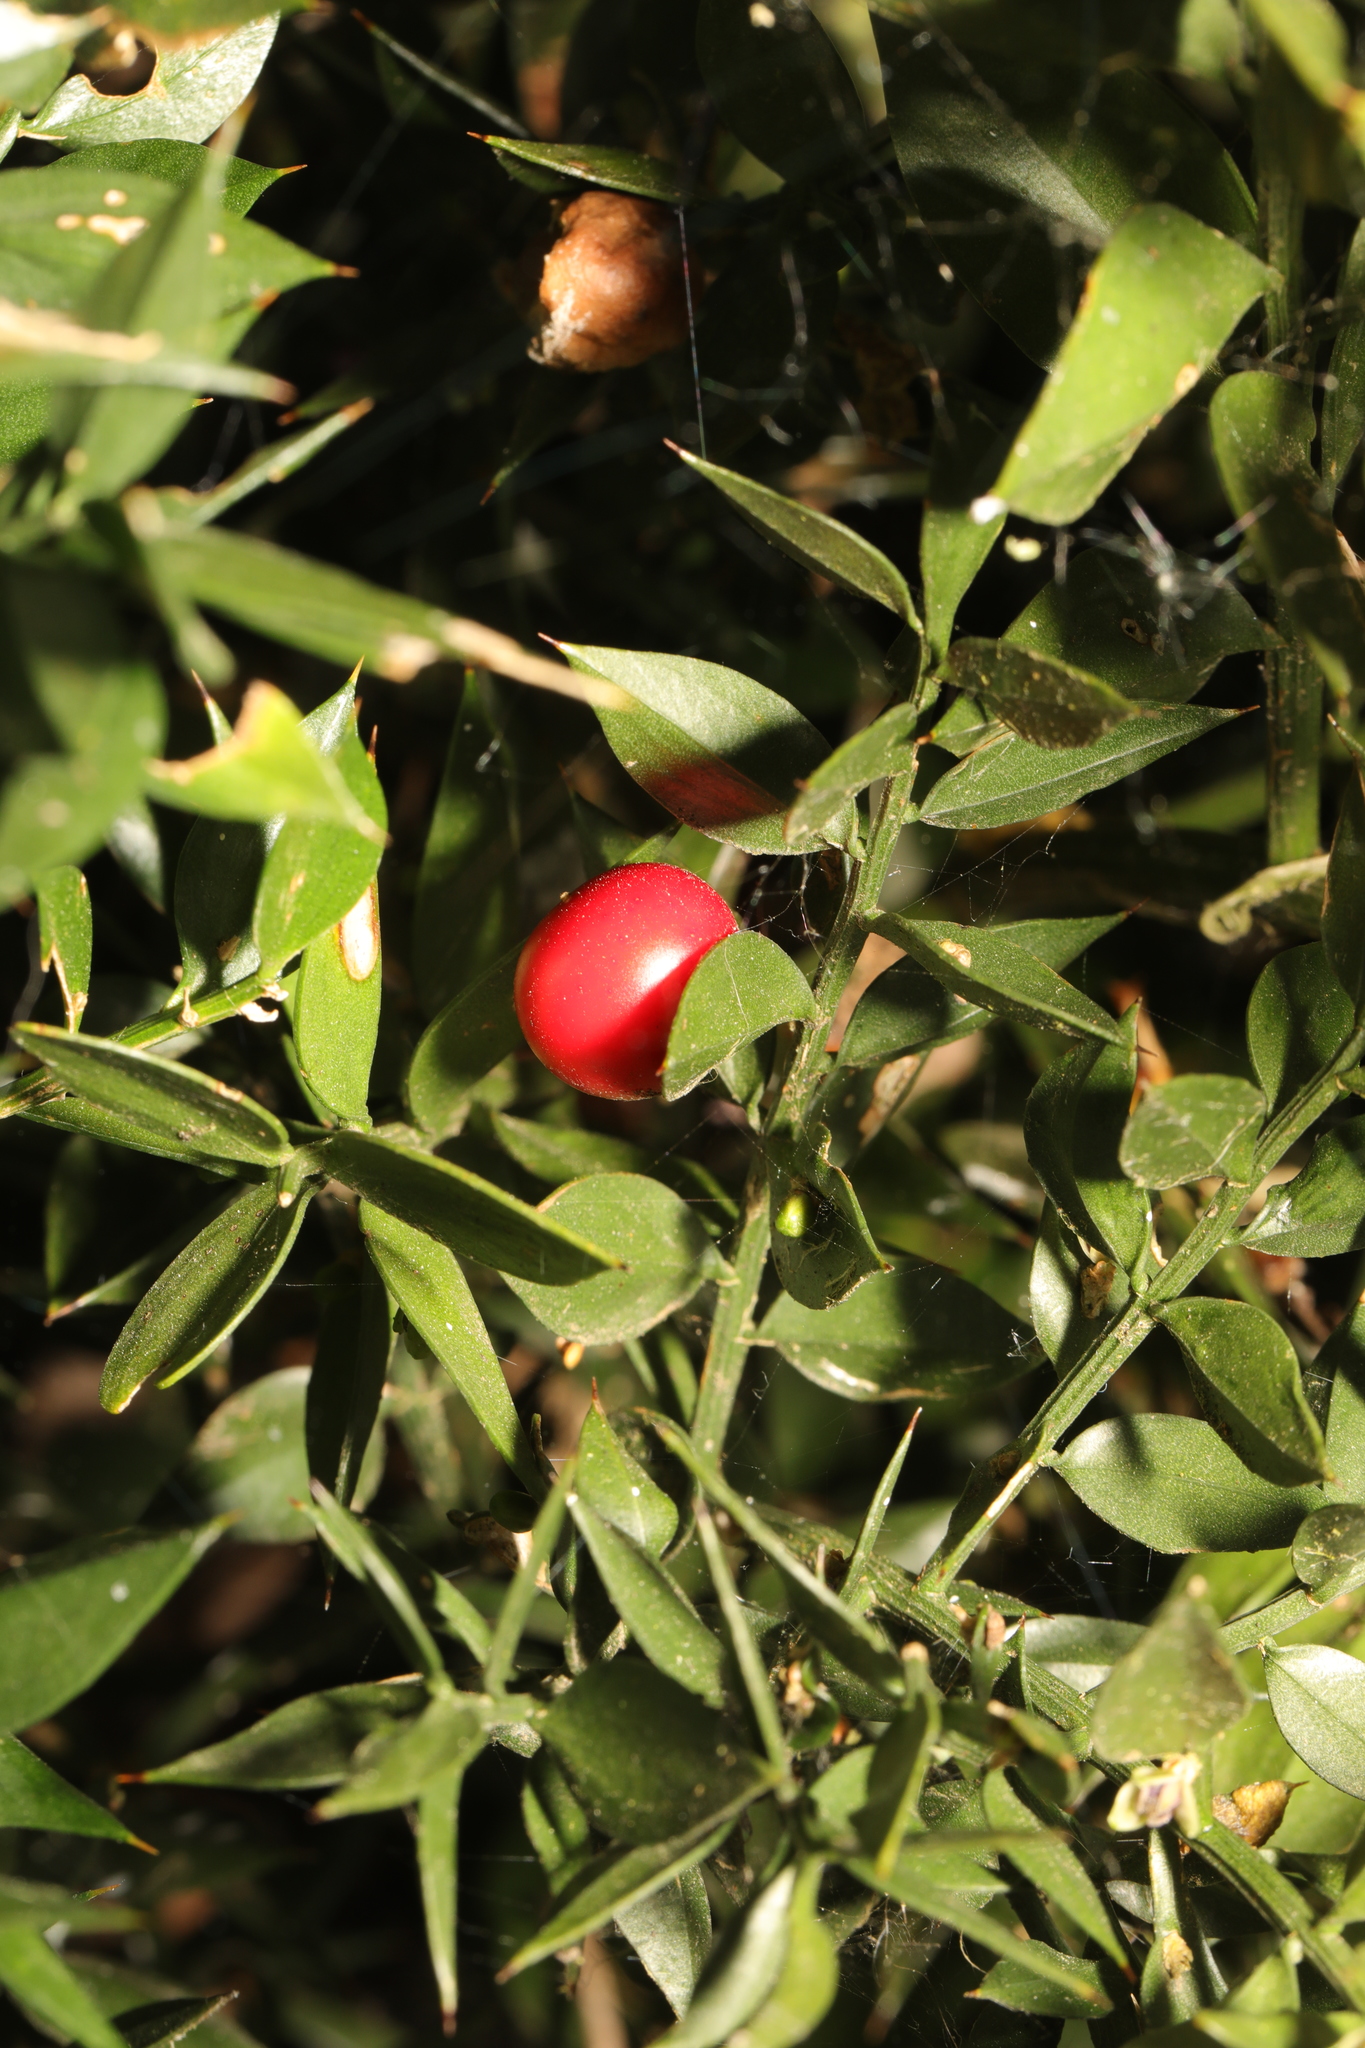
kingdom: Plantae
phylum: Tracheophyta
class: Liliopsida
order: Asparagales
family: Asparagaceae
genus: Ruscus
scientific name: Ruscus aculeatus
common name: Butcher's-broom
